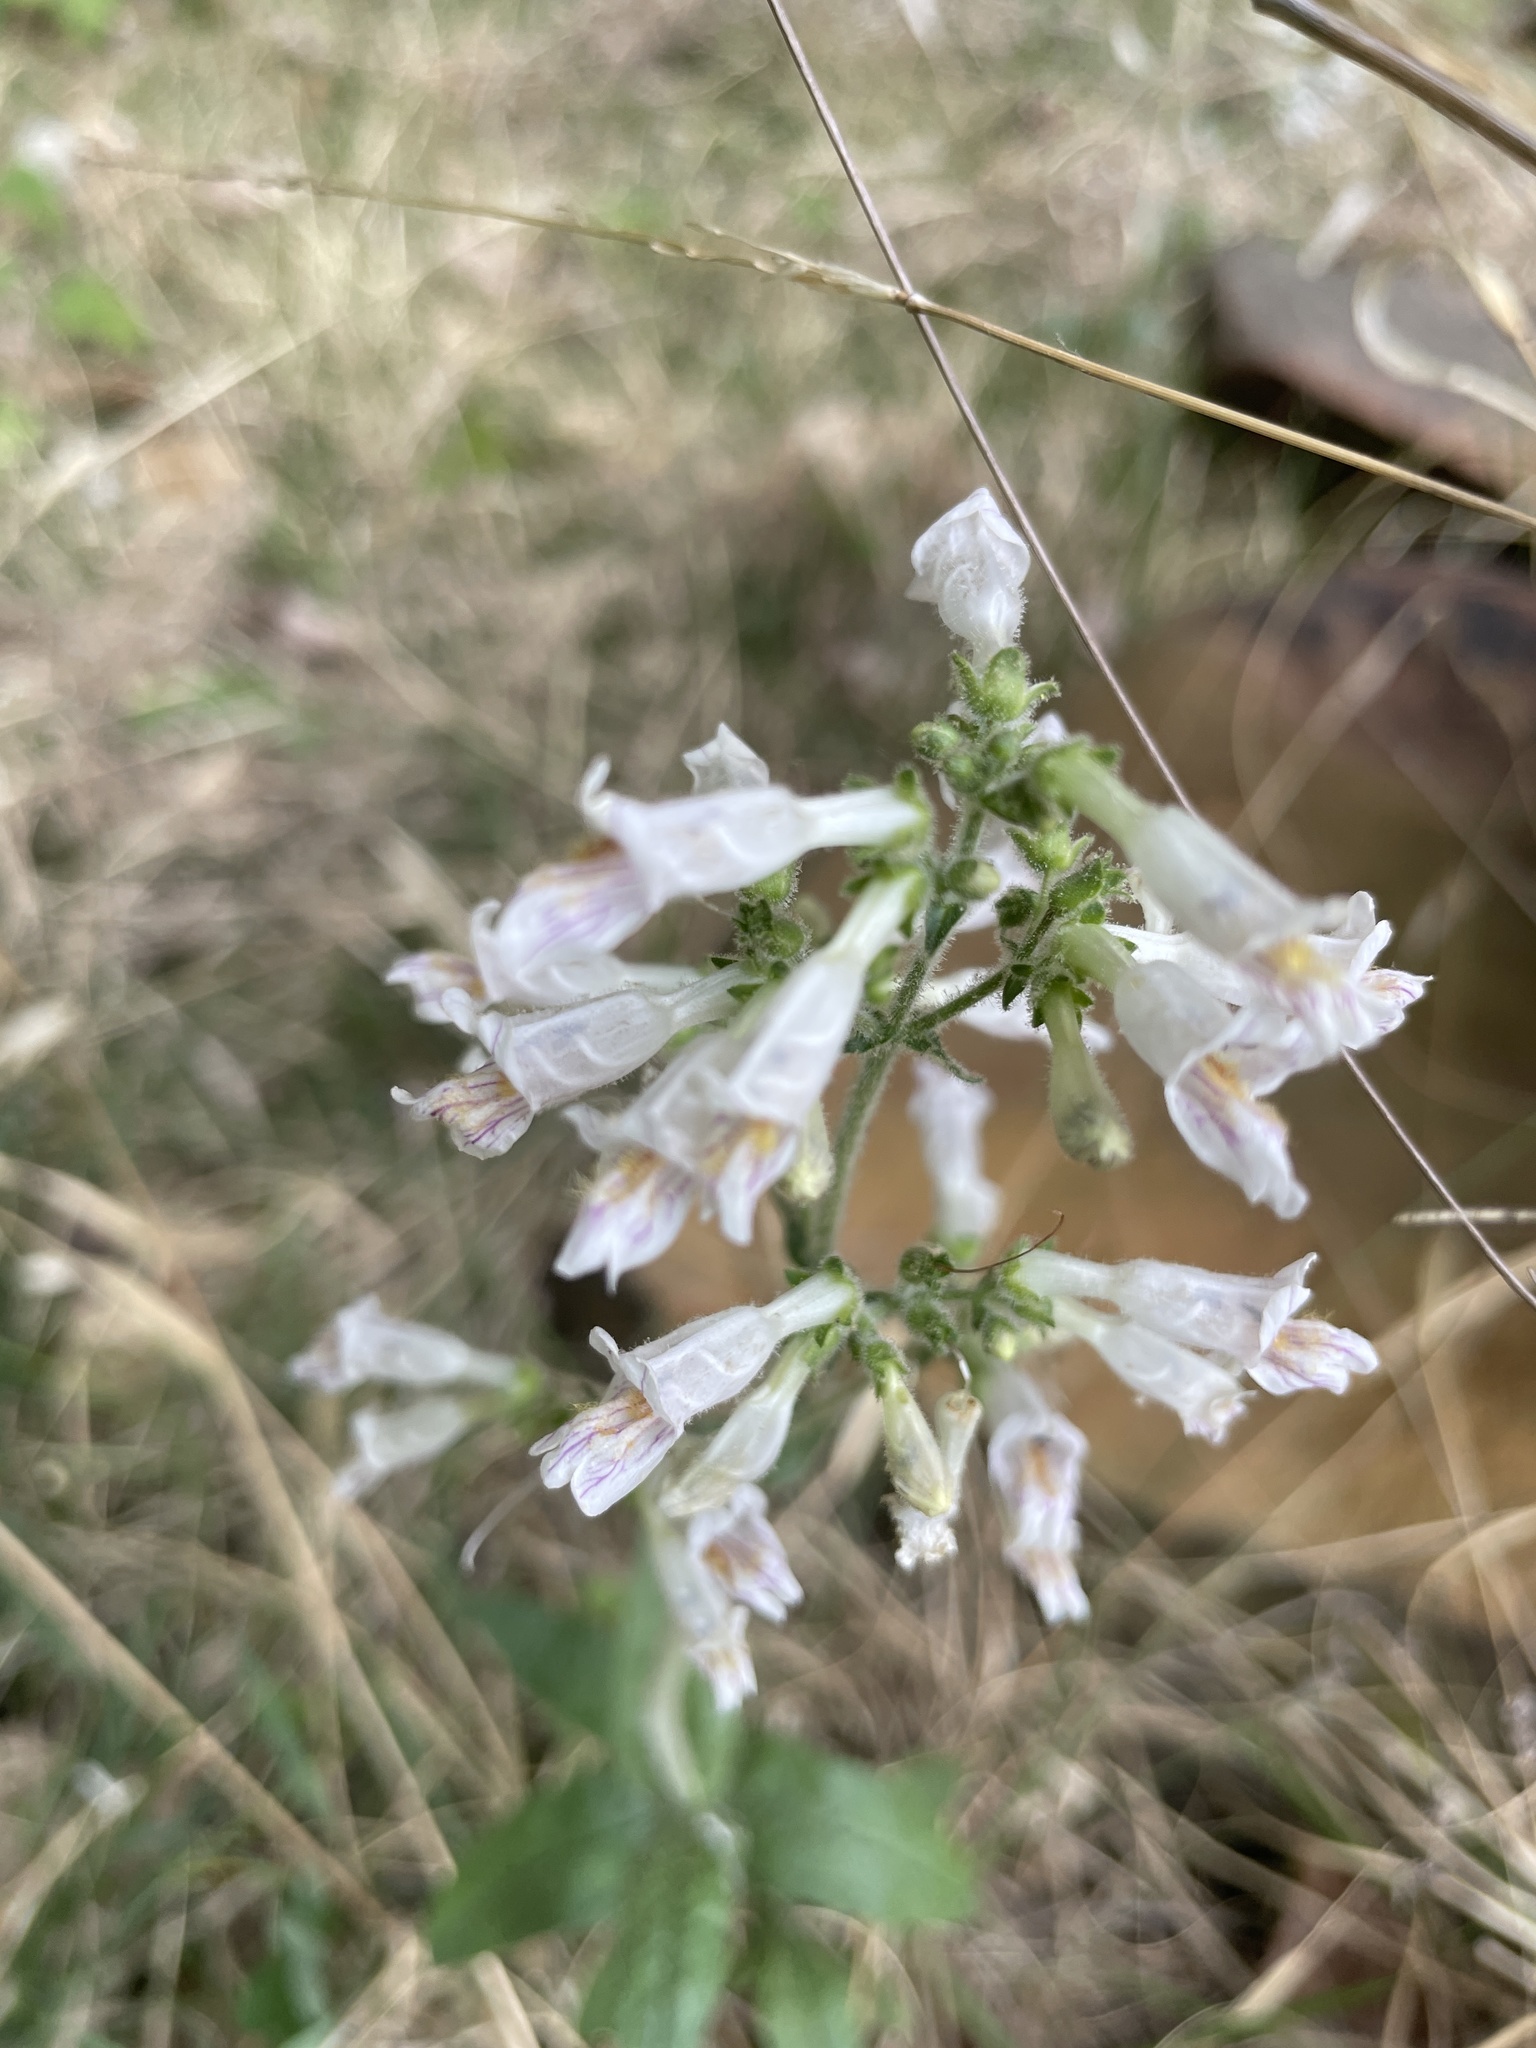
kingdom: Plantae
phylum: Tracheophyta
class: Magnoliopsida
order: Lamiales
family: Plantaginaceae
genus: Penstemon
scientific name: Penstemon pallidus
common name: Pale beardtongue
